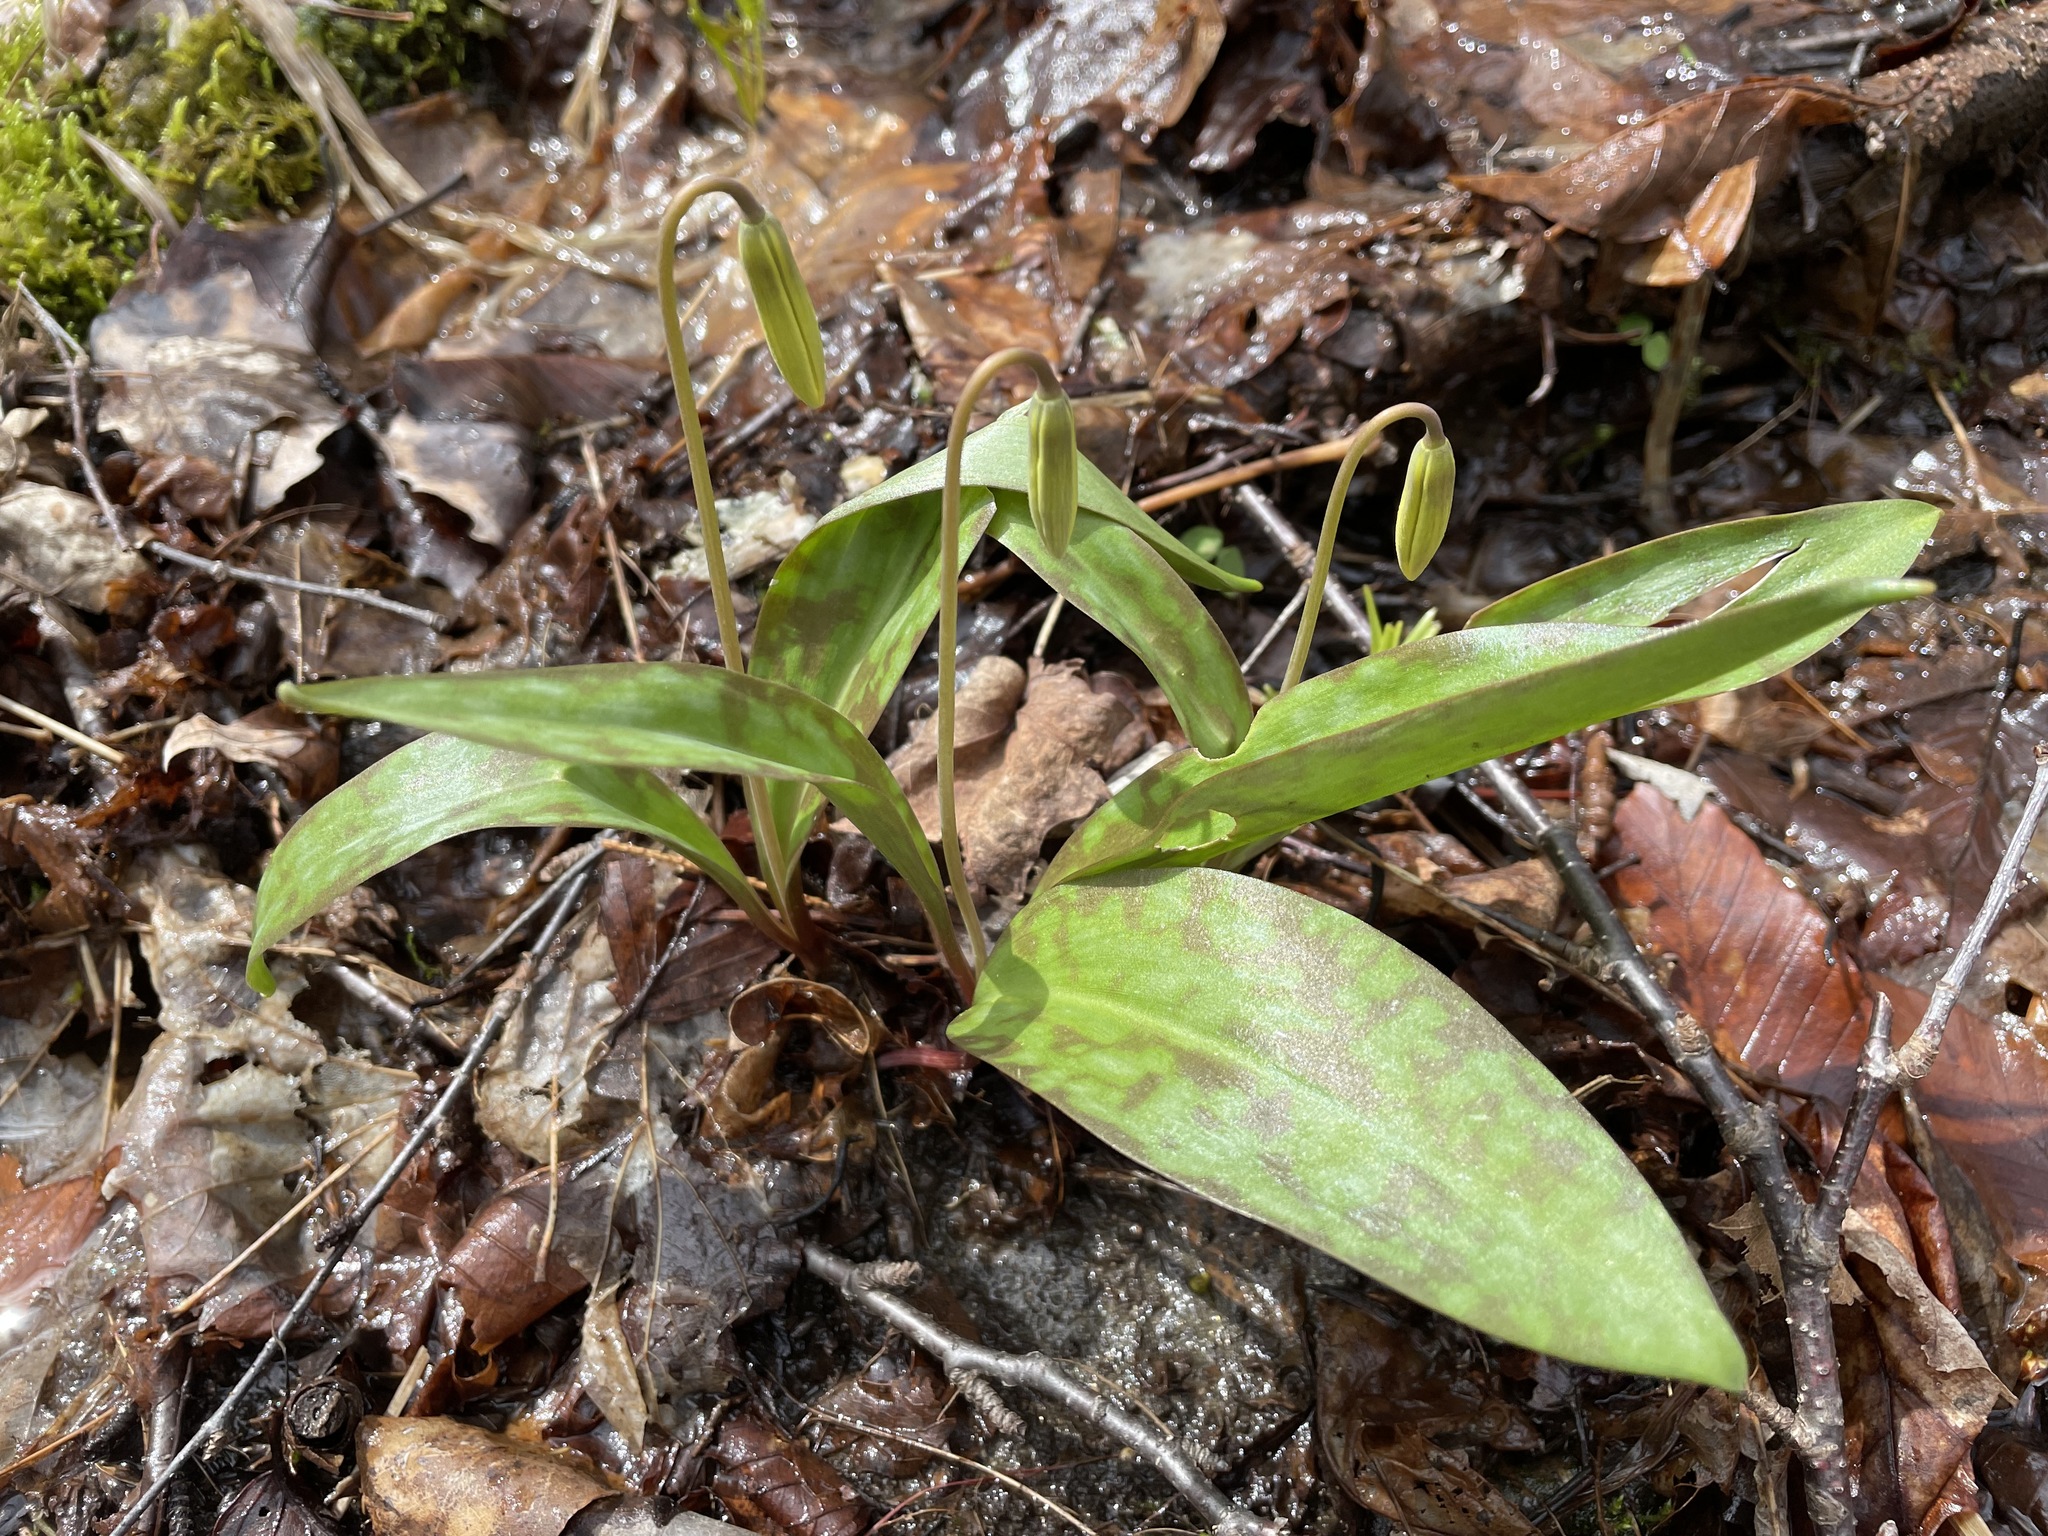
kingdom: Plantae
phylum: Tracheophyta
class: Liliopsida
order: Liliales
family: Liliaceae
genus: Erythronium
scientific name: Erythronium americanum
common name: Yellow adder's-tongue
